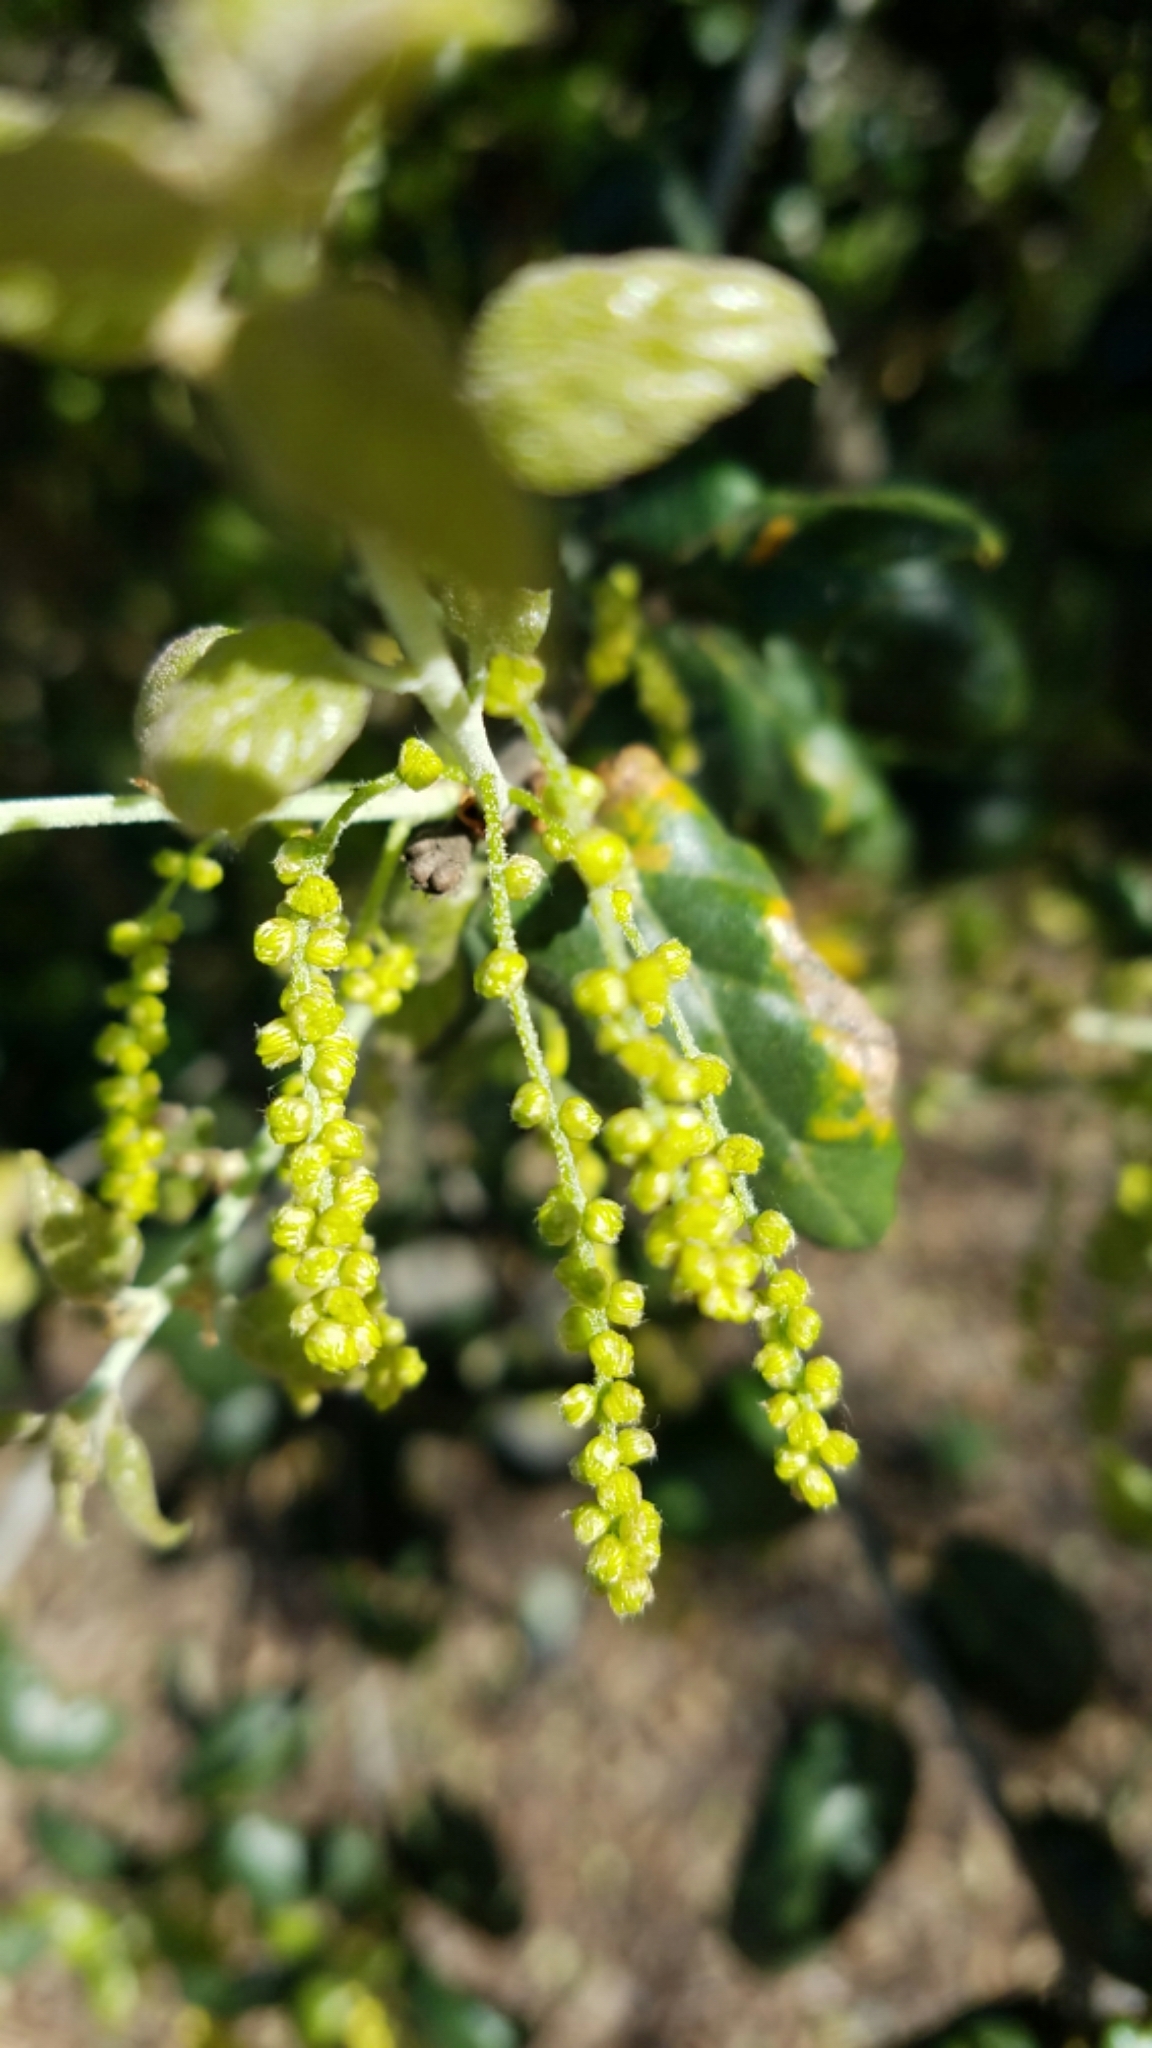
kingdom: Plantae
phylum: Tracheophyta
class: Magnoliopsida
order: Fagales
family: Fagaceae
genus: Quercus
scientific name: Quercus agrifolia
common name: California live oak
